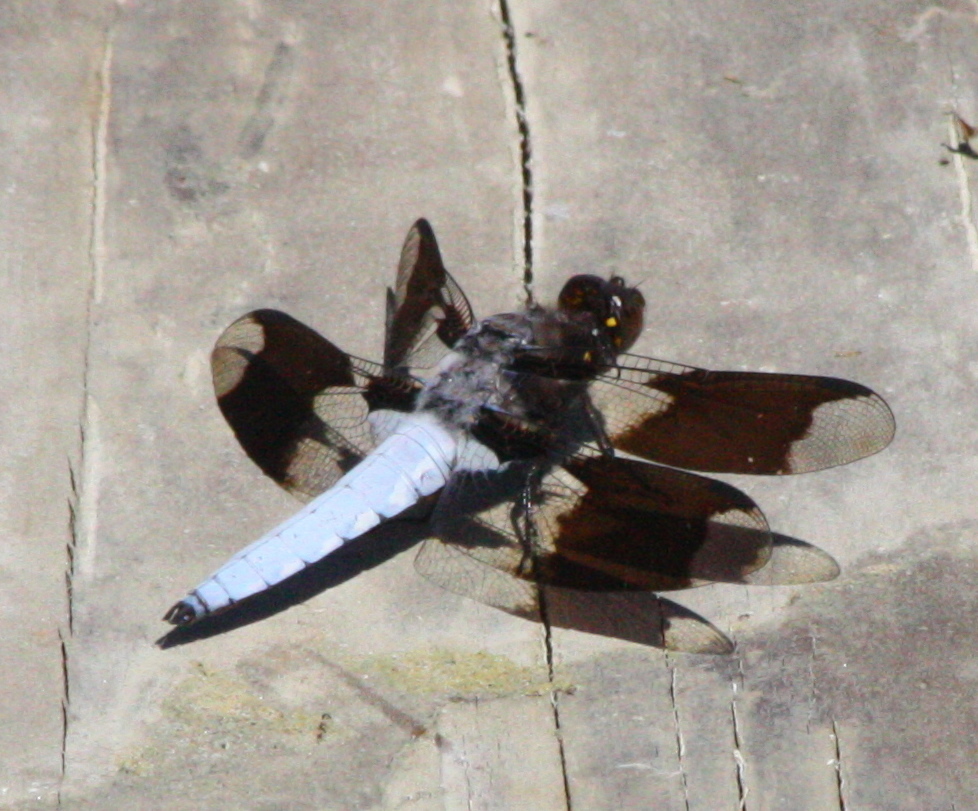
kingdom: Animalia
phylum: Arthropoda
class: Insecta
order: Odonata
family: Libellulidae
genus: Plathemis
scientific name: Plathemis lydia
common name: Common whitetail
